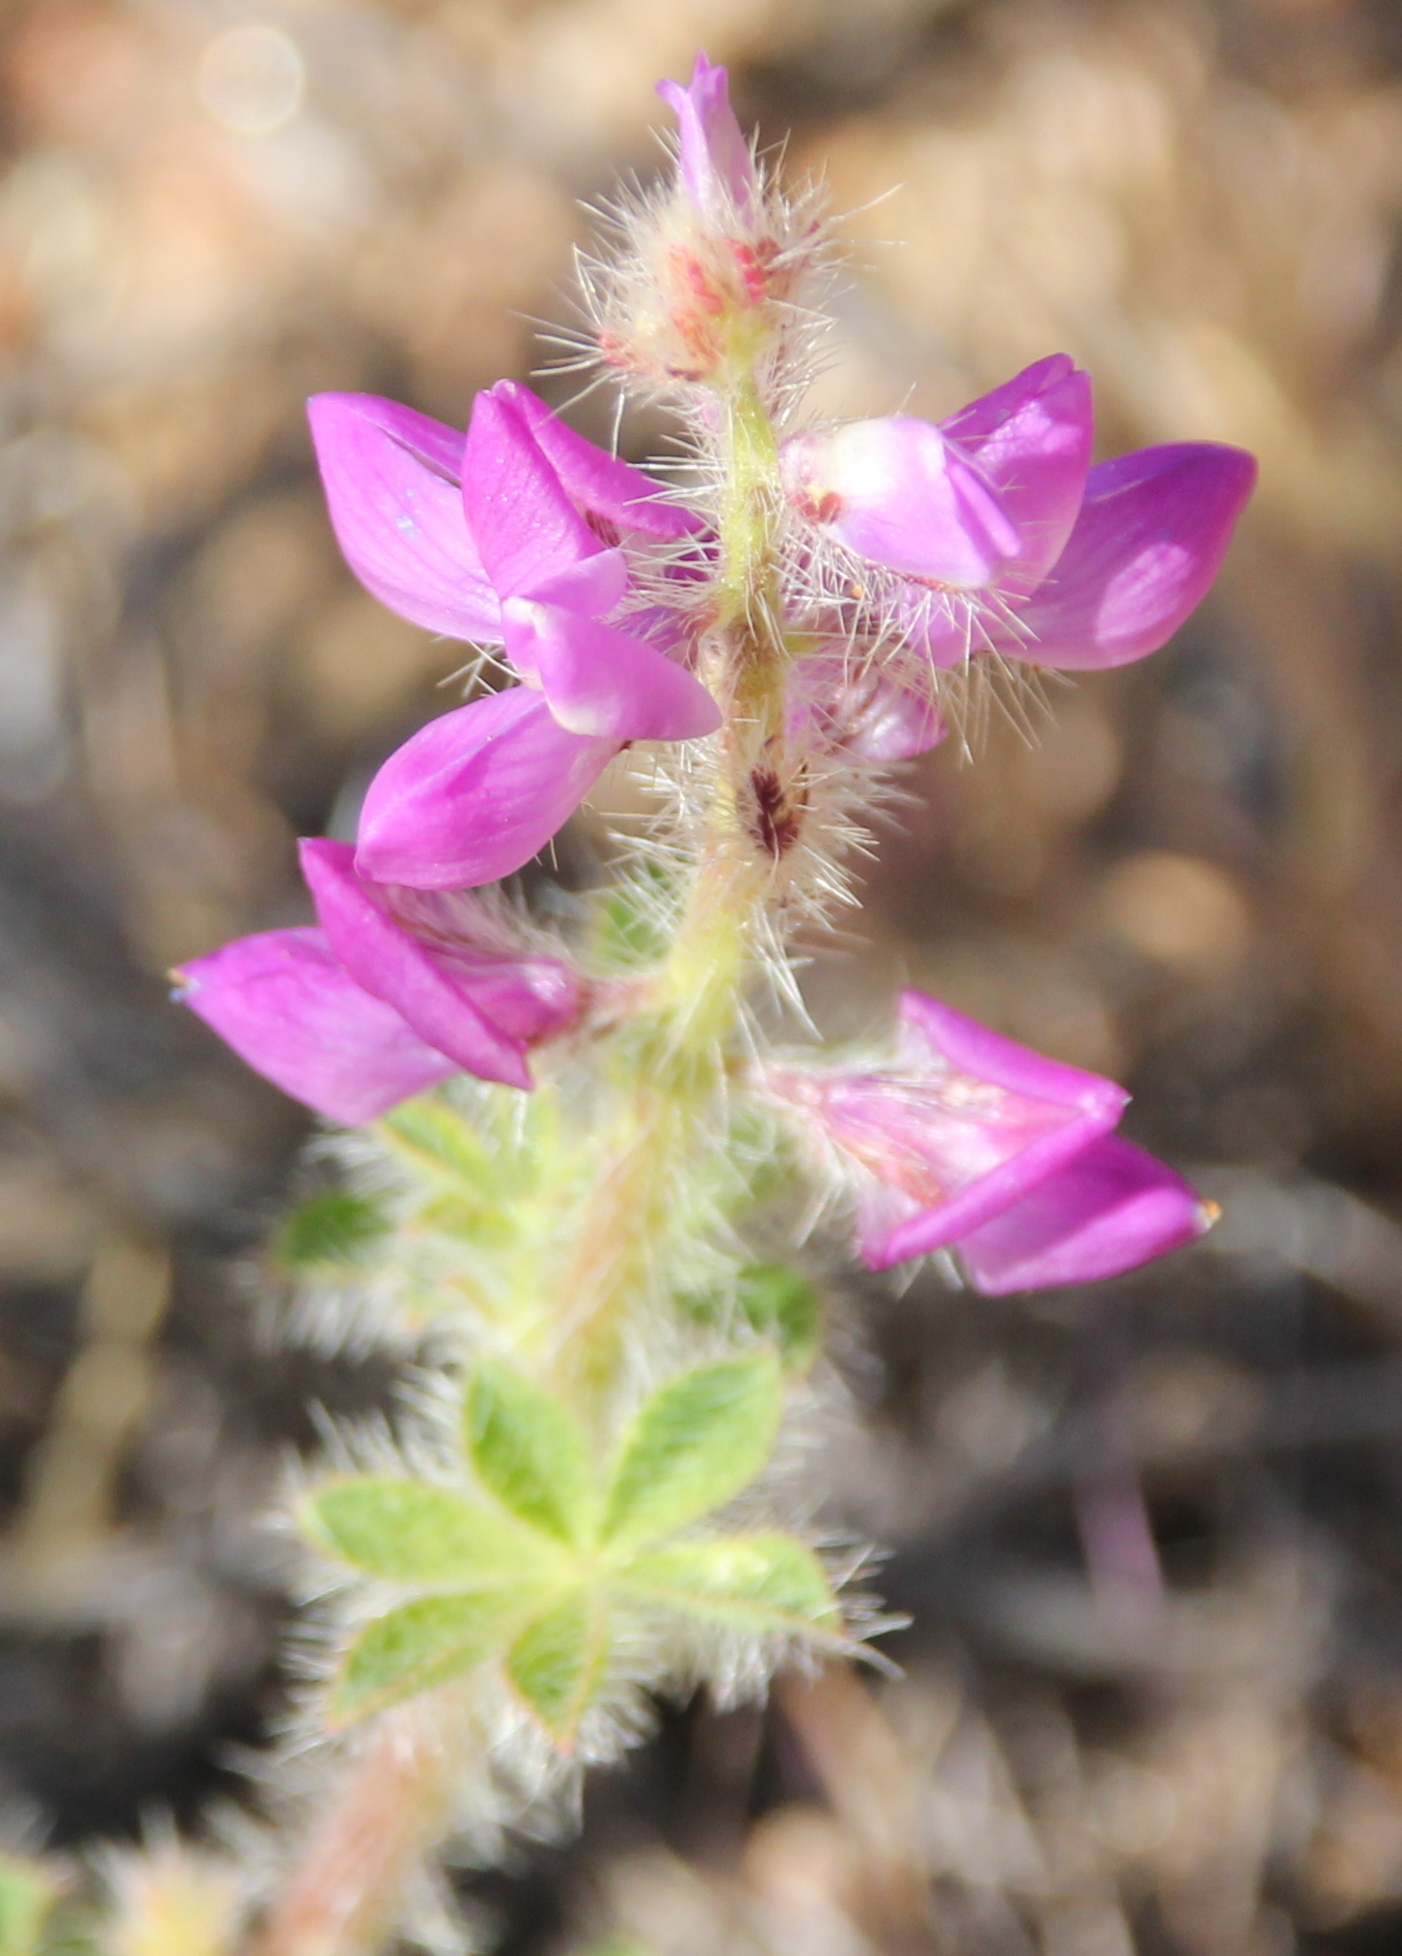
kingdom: Plantae
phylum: Tracheophyta
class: Magnoliopsida
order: Fabales
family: Fabaceae
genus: Lupinus
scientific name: Lupinus hirsutissimus
